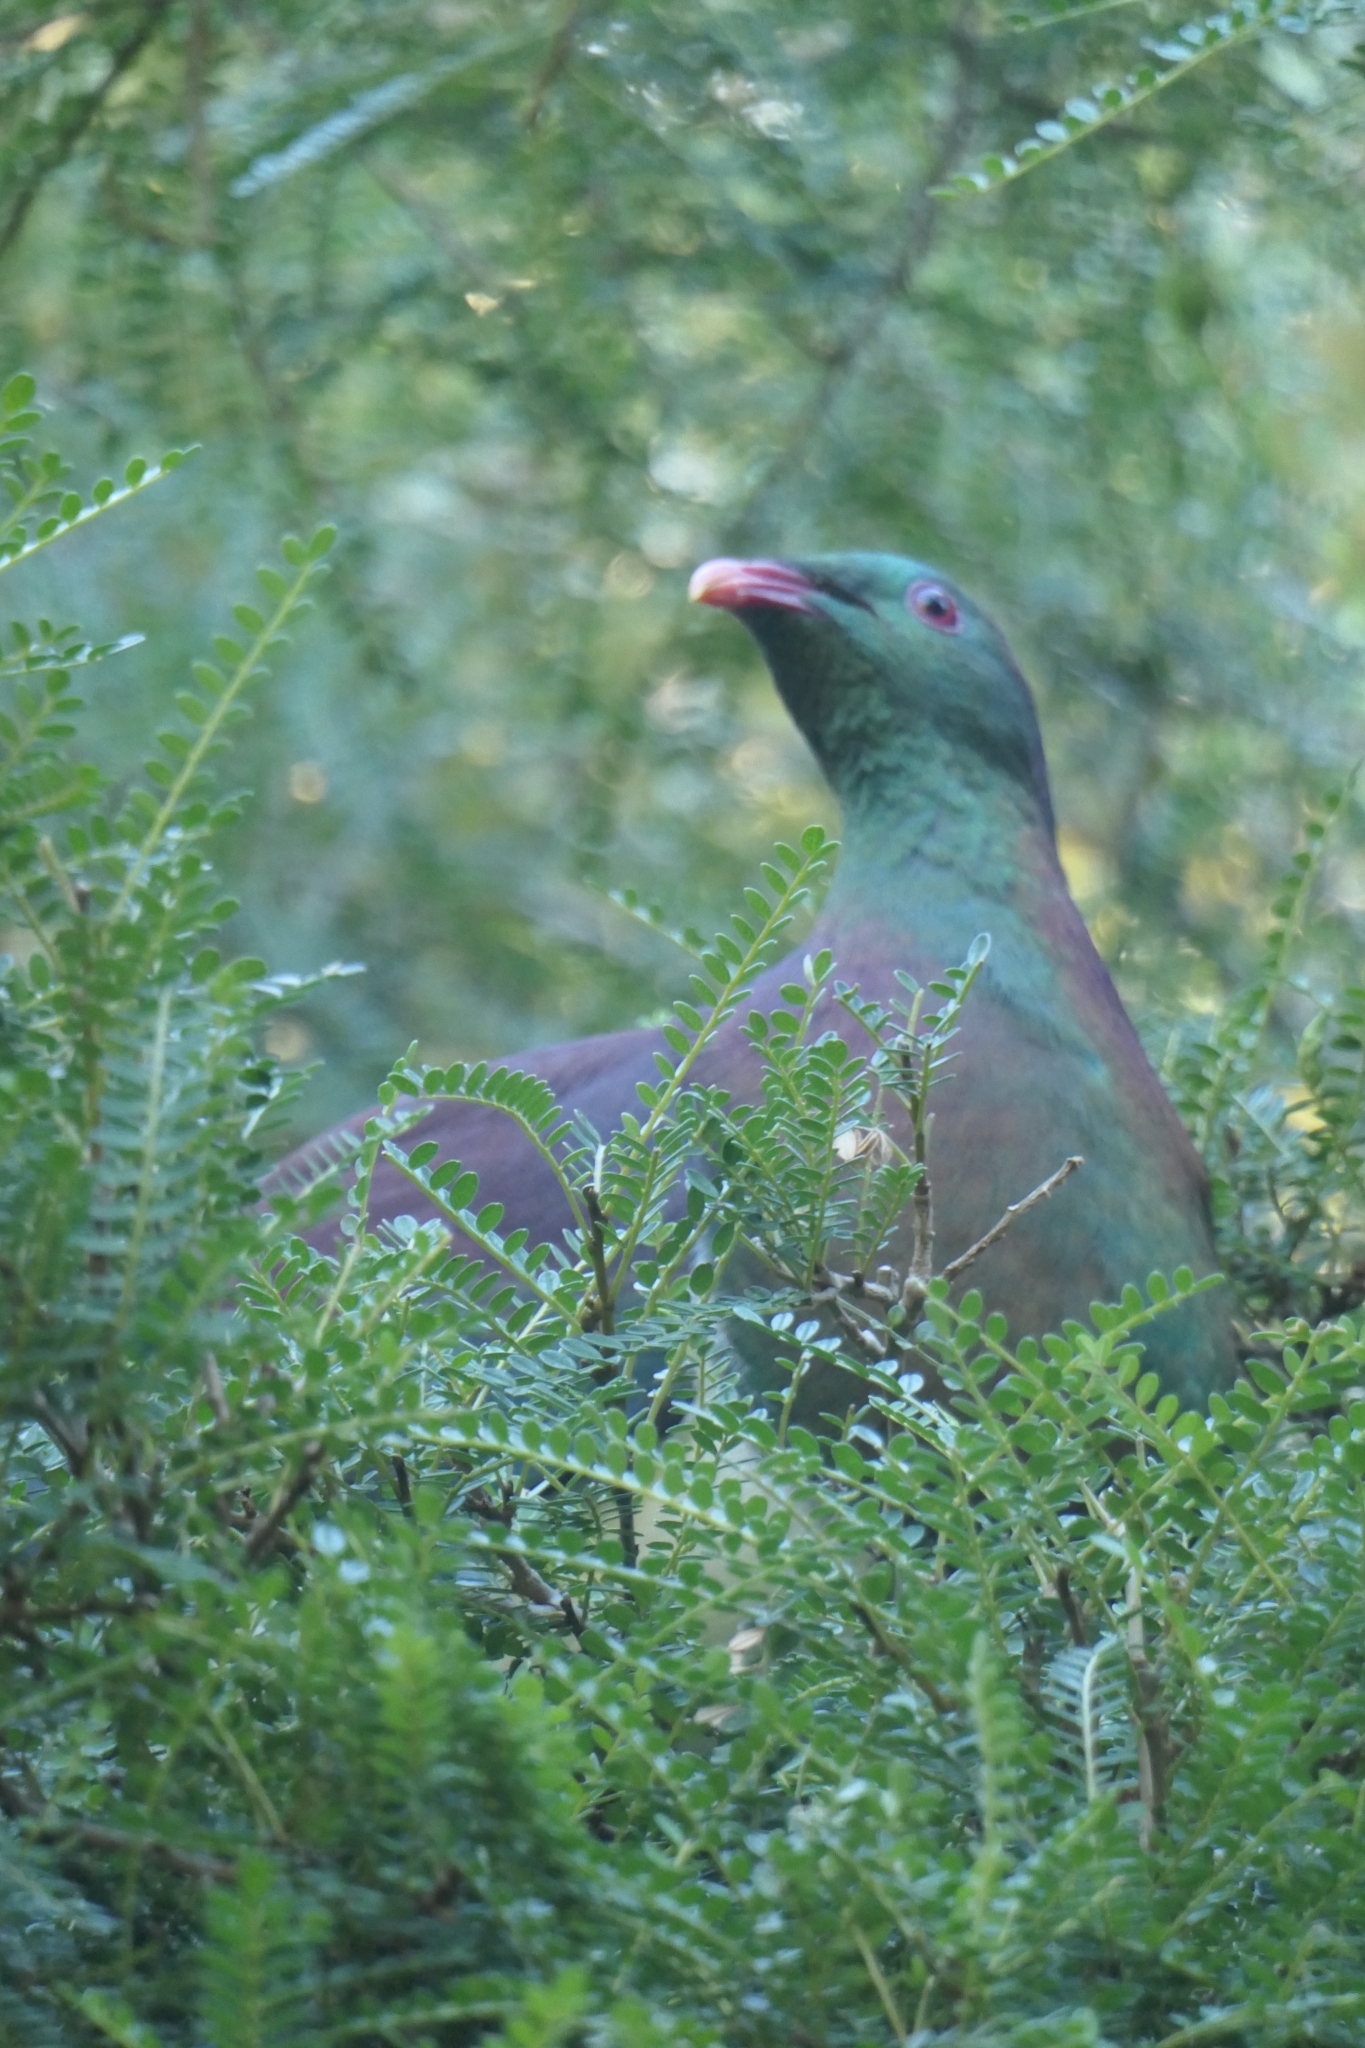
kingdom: Animalia
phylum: Chordata
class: Aves
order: Columbiformes
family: Columbidae
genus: Hemiphaga
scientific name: Hemiphaga novaeseelandiae
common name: New zealand pigeon
